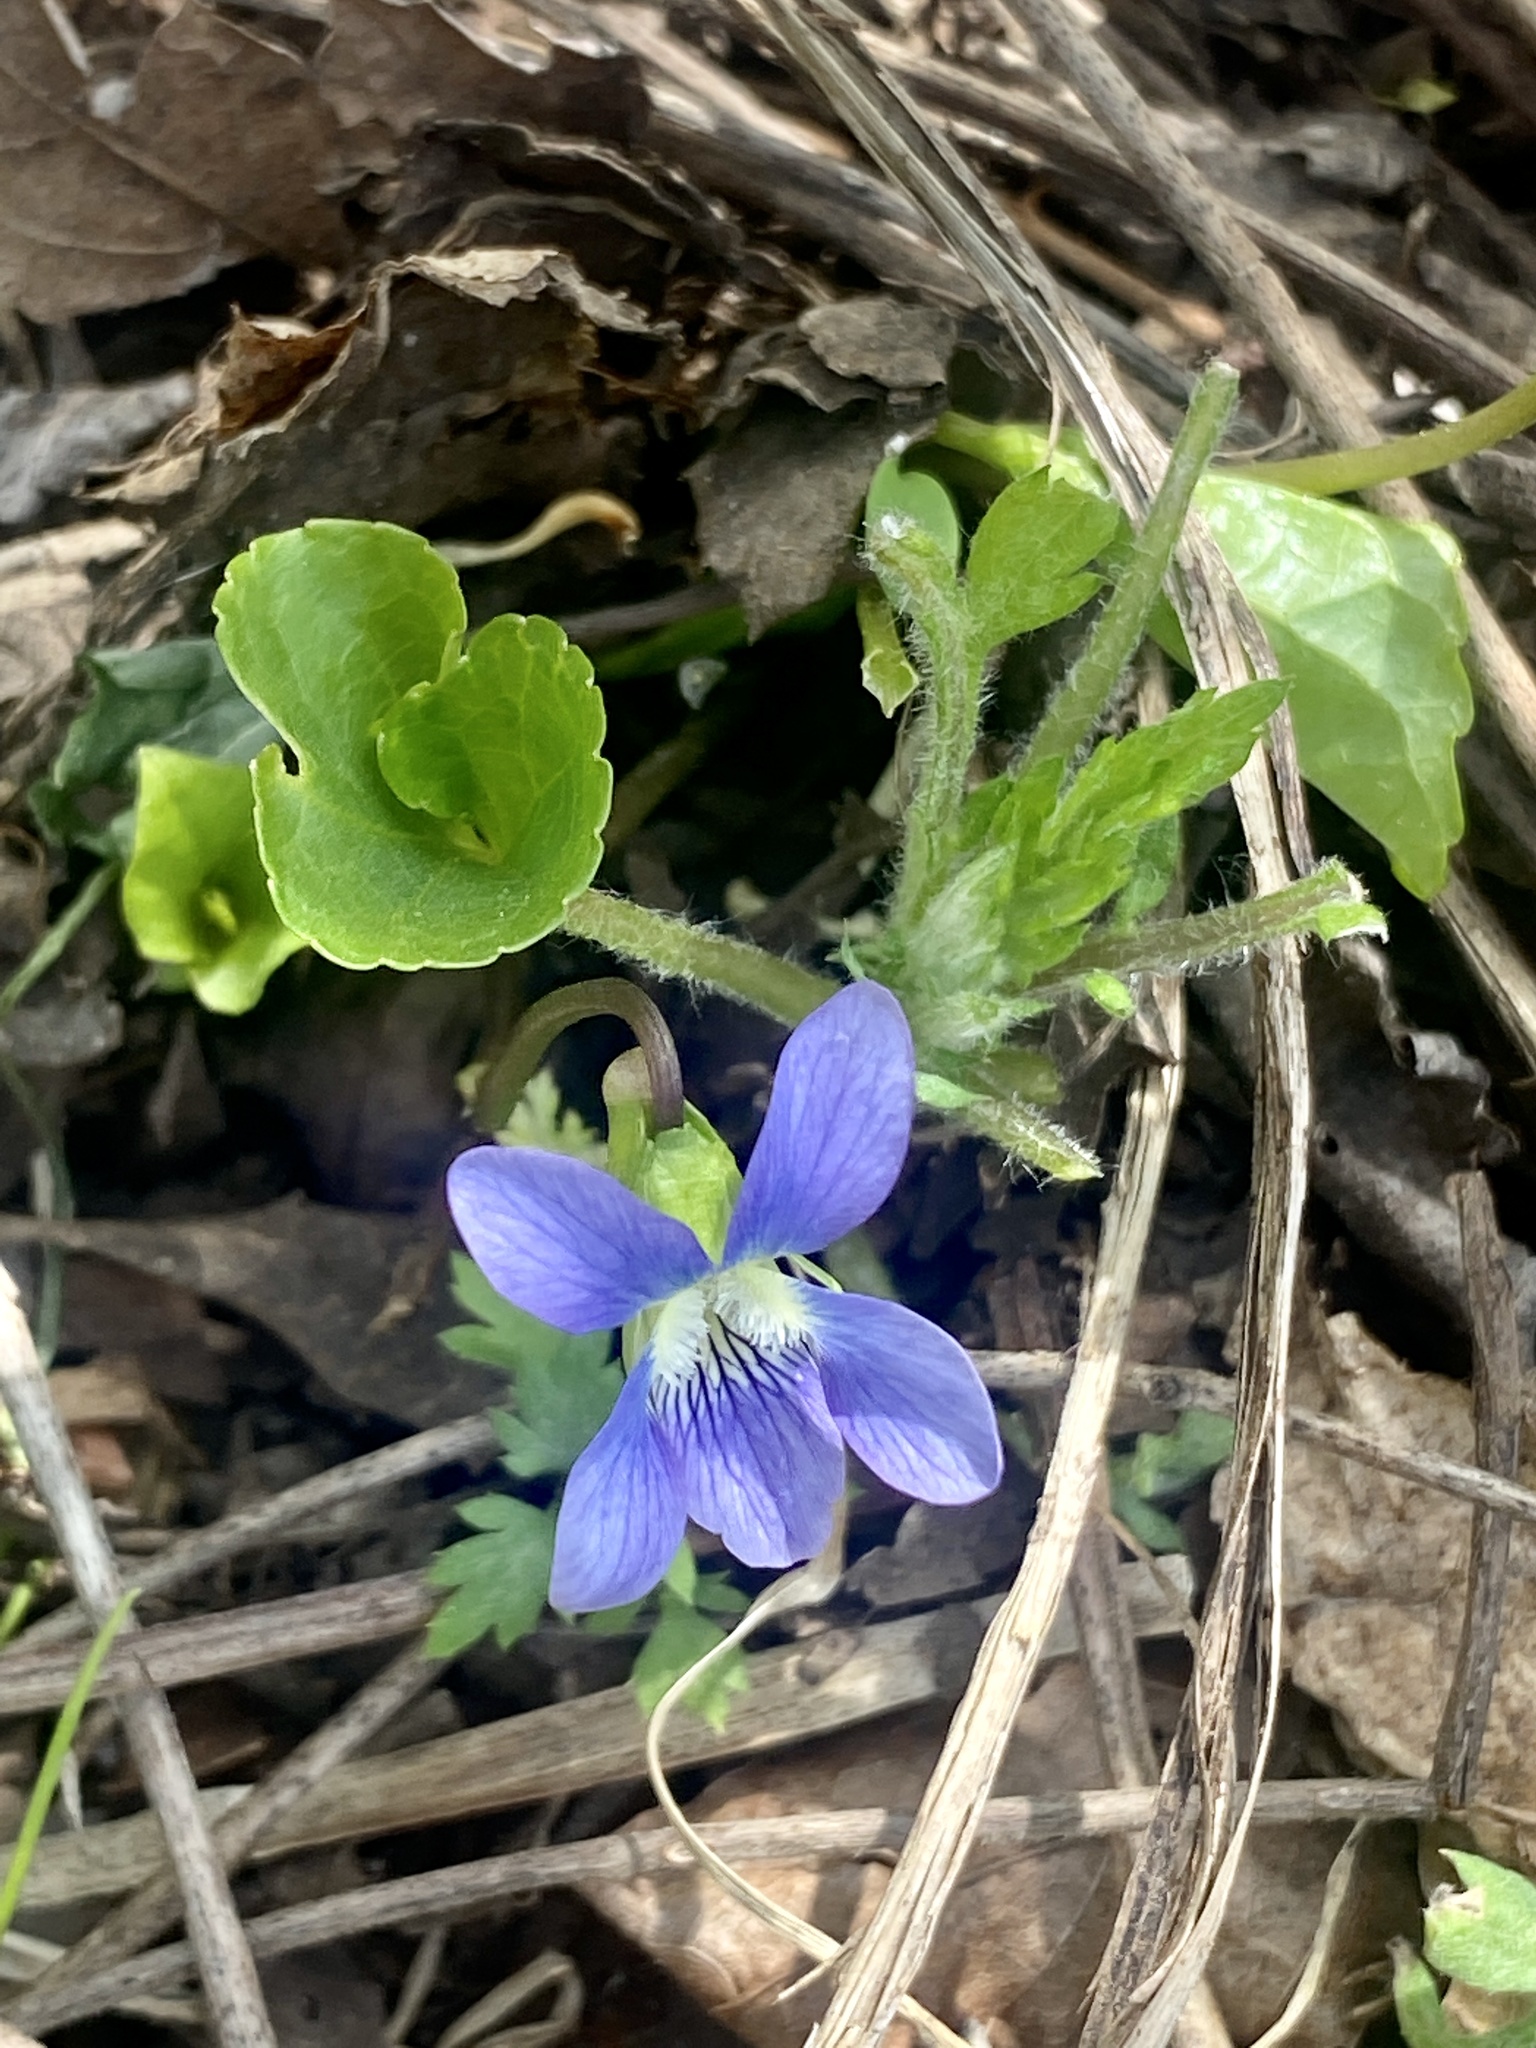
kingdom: Plantae
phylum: Tracheophyta
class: Magnoliopsida
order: Malpighiales
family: Violaceae
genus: Viola
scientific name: Viola sororia
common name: Dooryard violet
